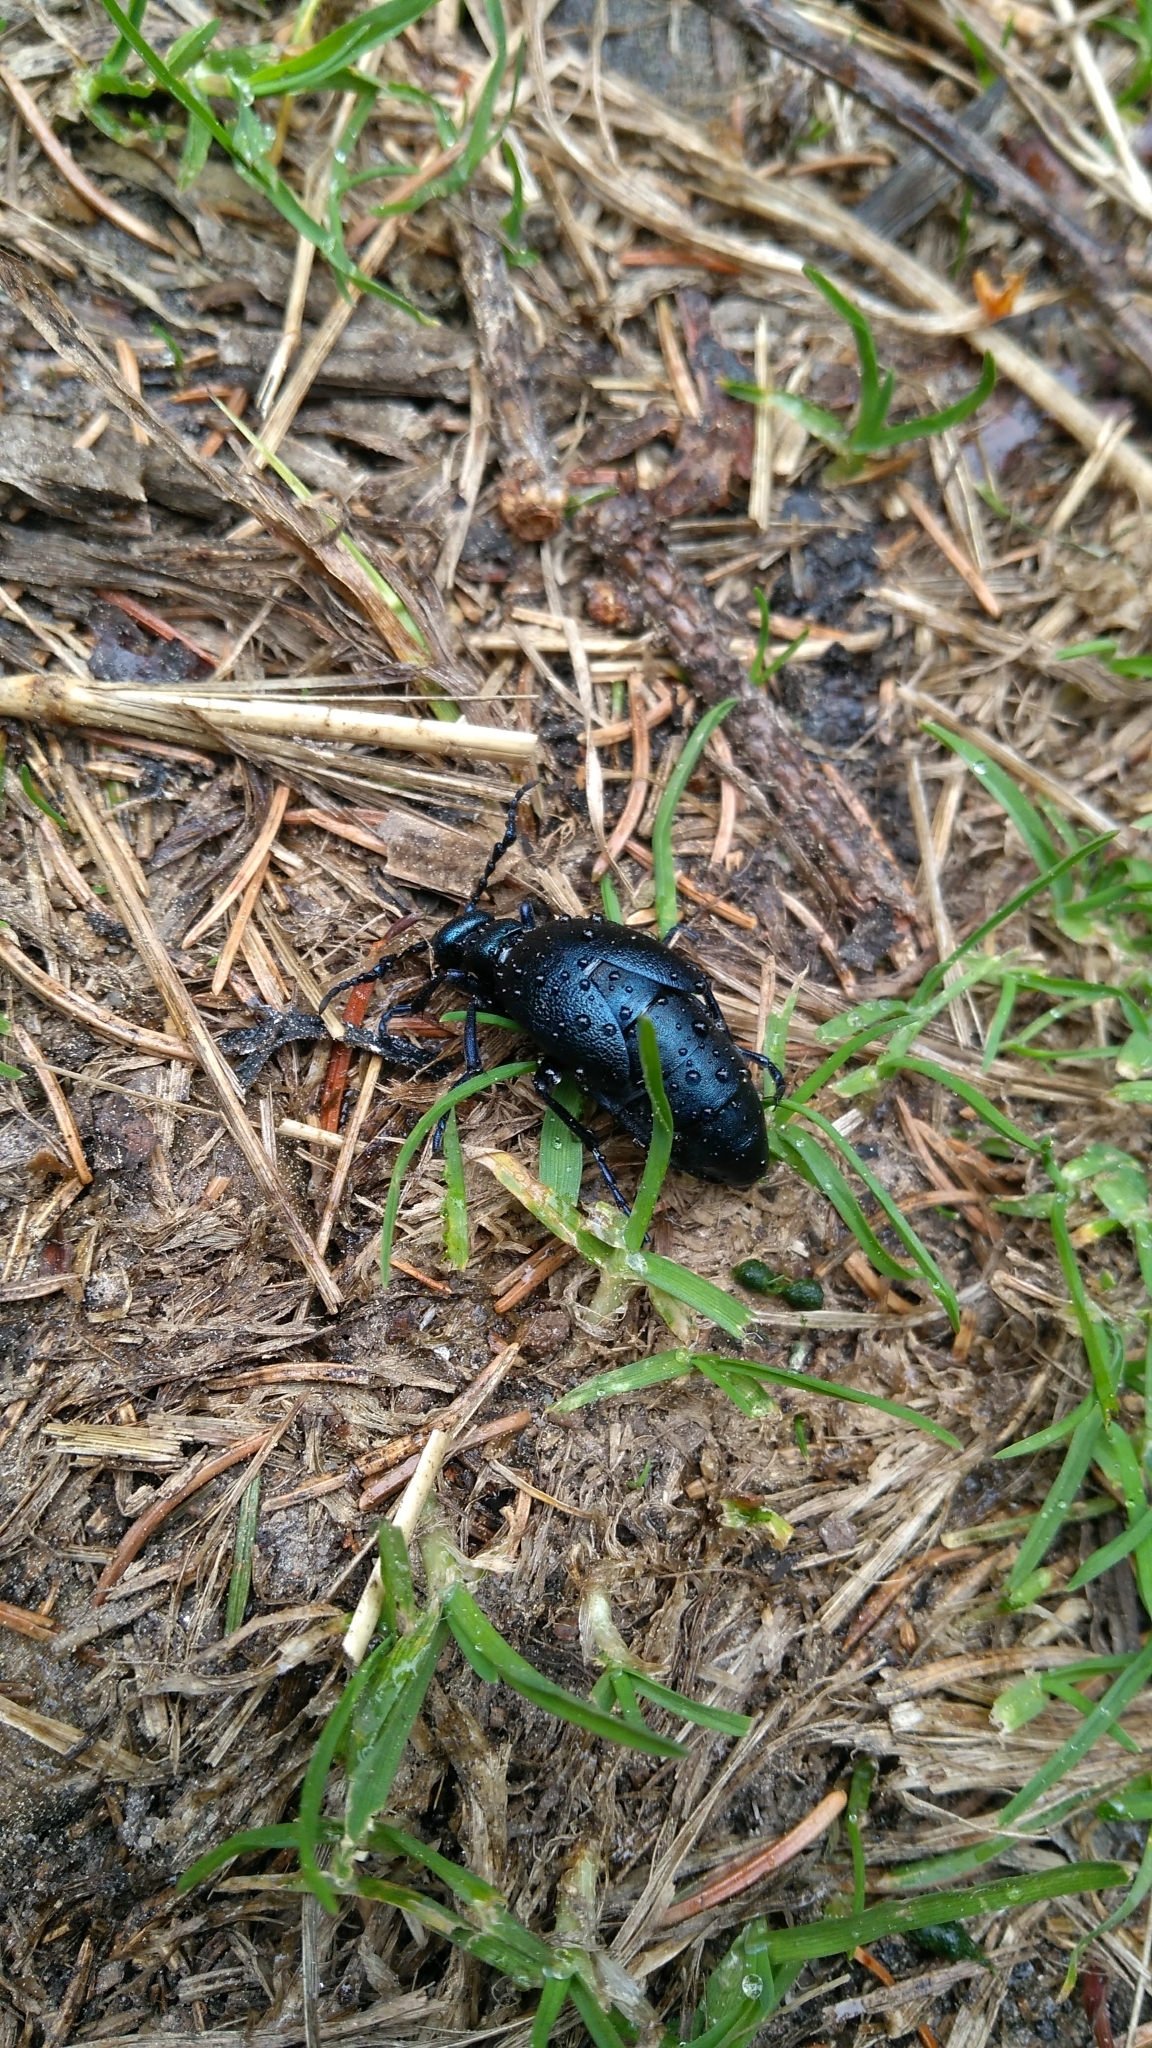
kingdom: Animalia
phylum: Arthropoda
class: Insecta
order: Coleoptera
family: Meloidae
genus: Meloe
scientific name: Meloe proscarabaeus
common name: Black oil-beetle
